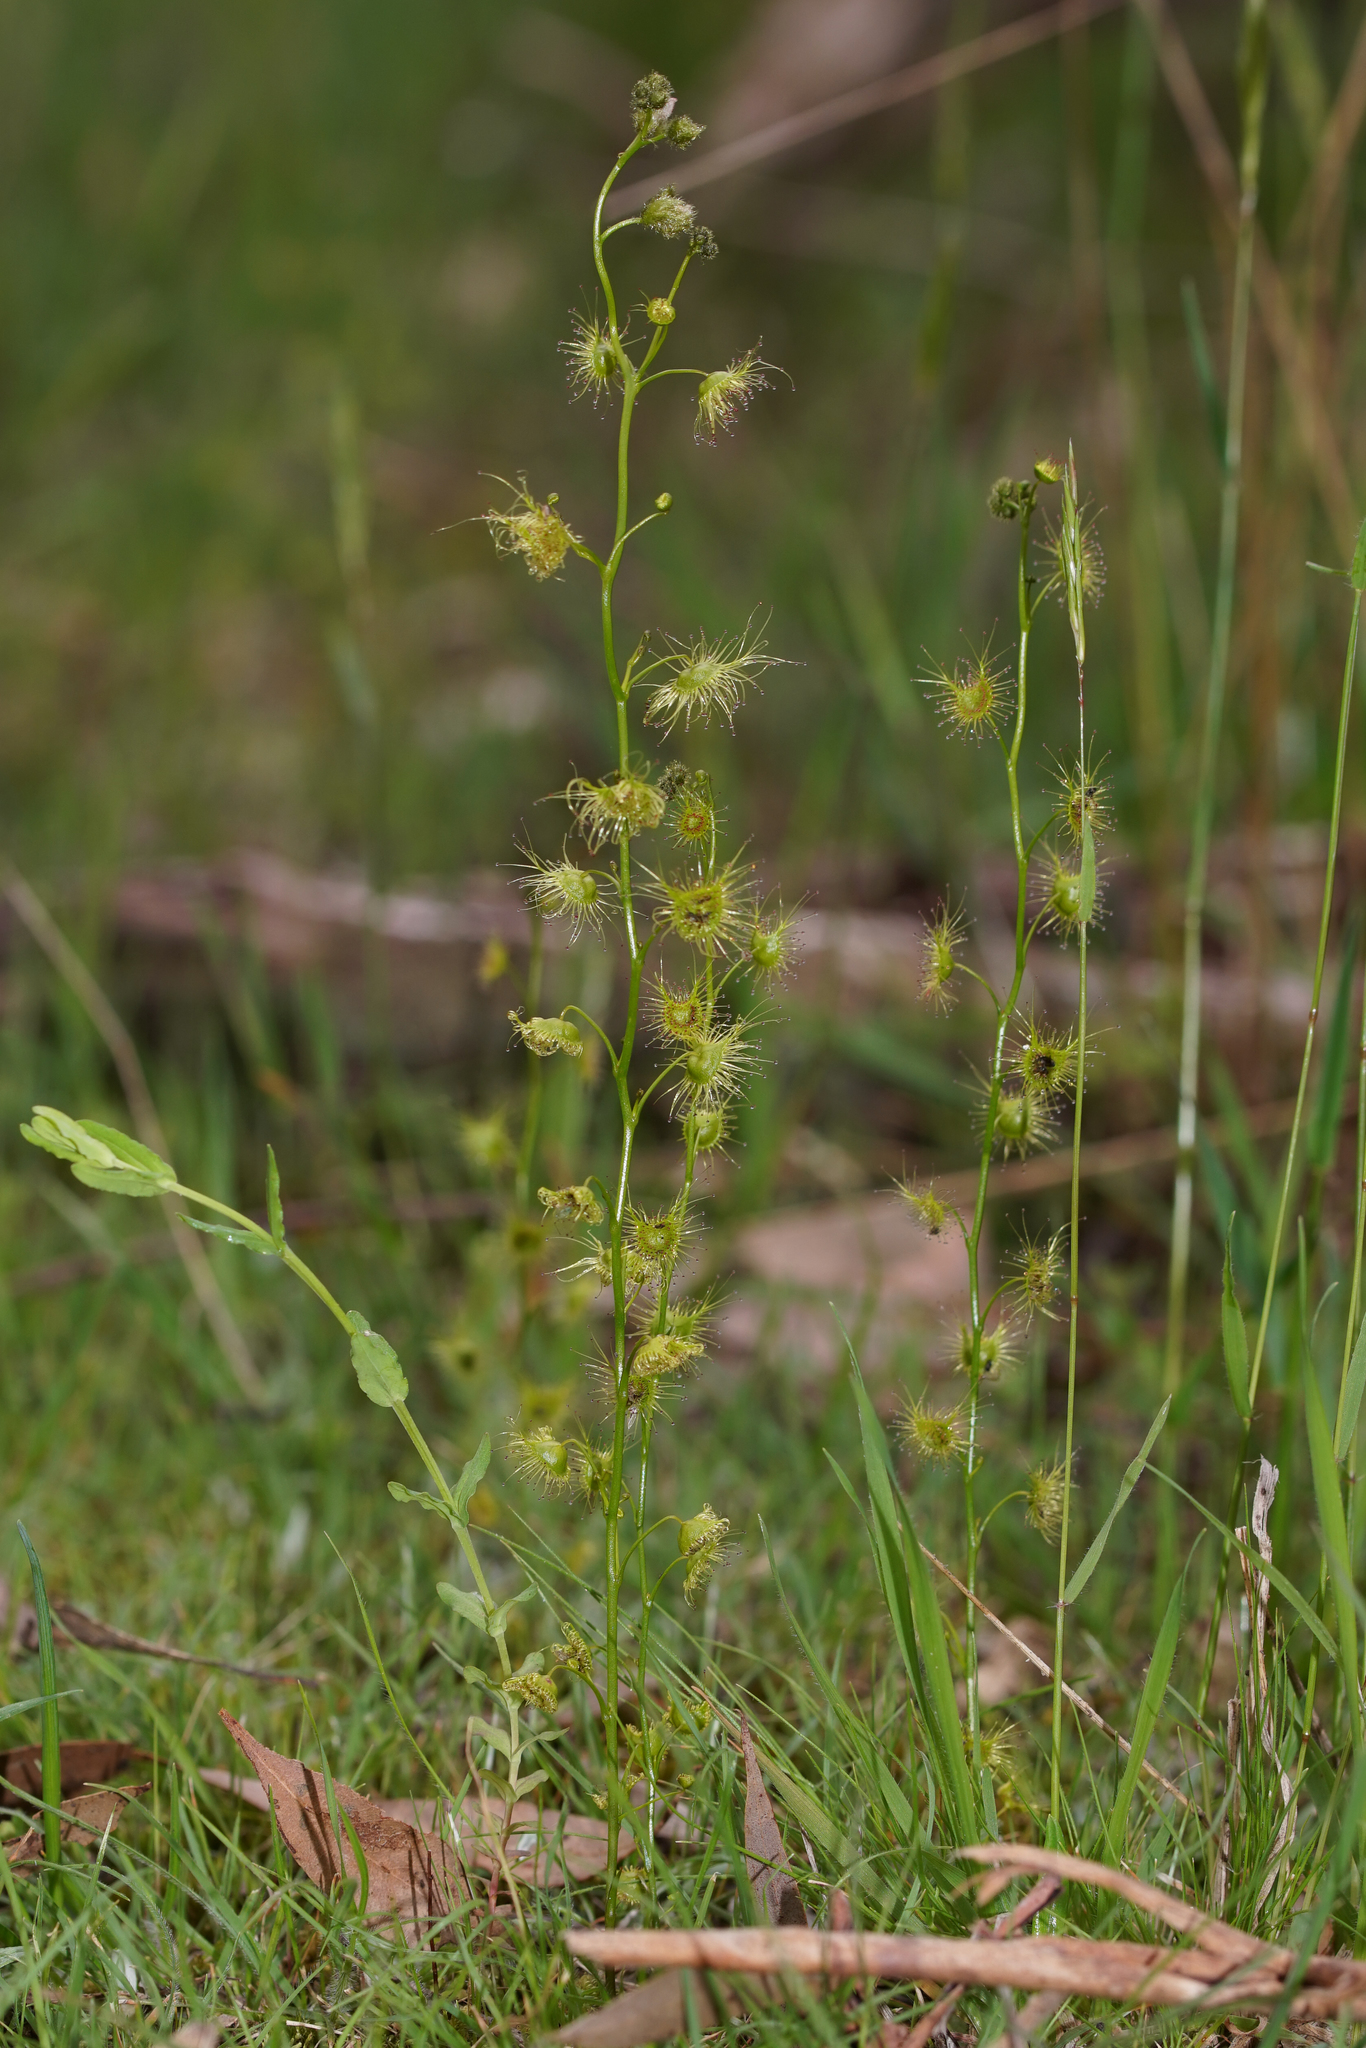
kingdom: Plantae
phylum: Tracheophyta
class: Magnoliopsida
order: Caryophyllales
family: Droseraceae
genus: Drosera
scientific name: Drosera gunniana
